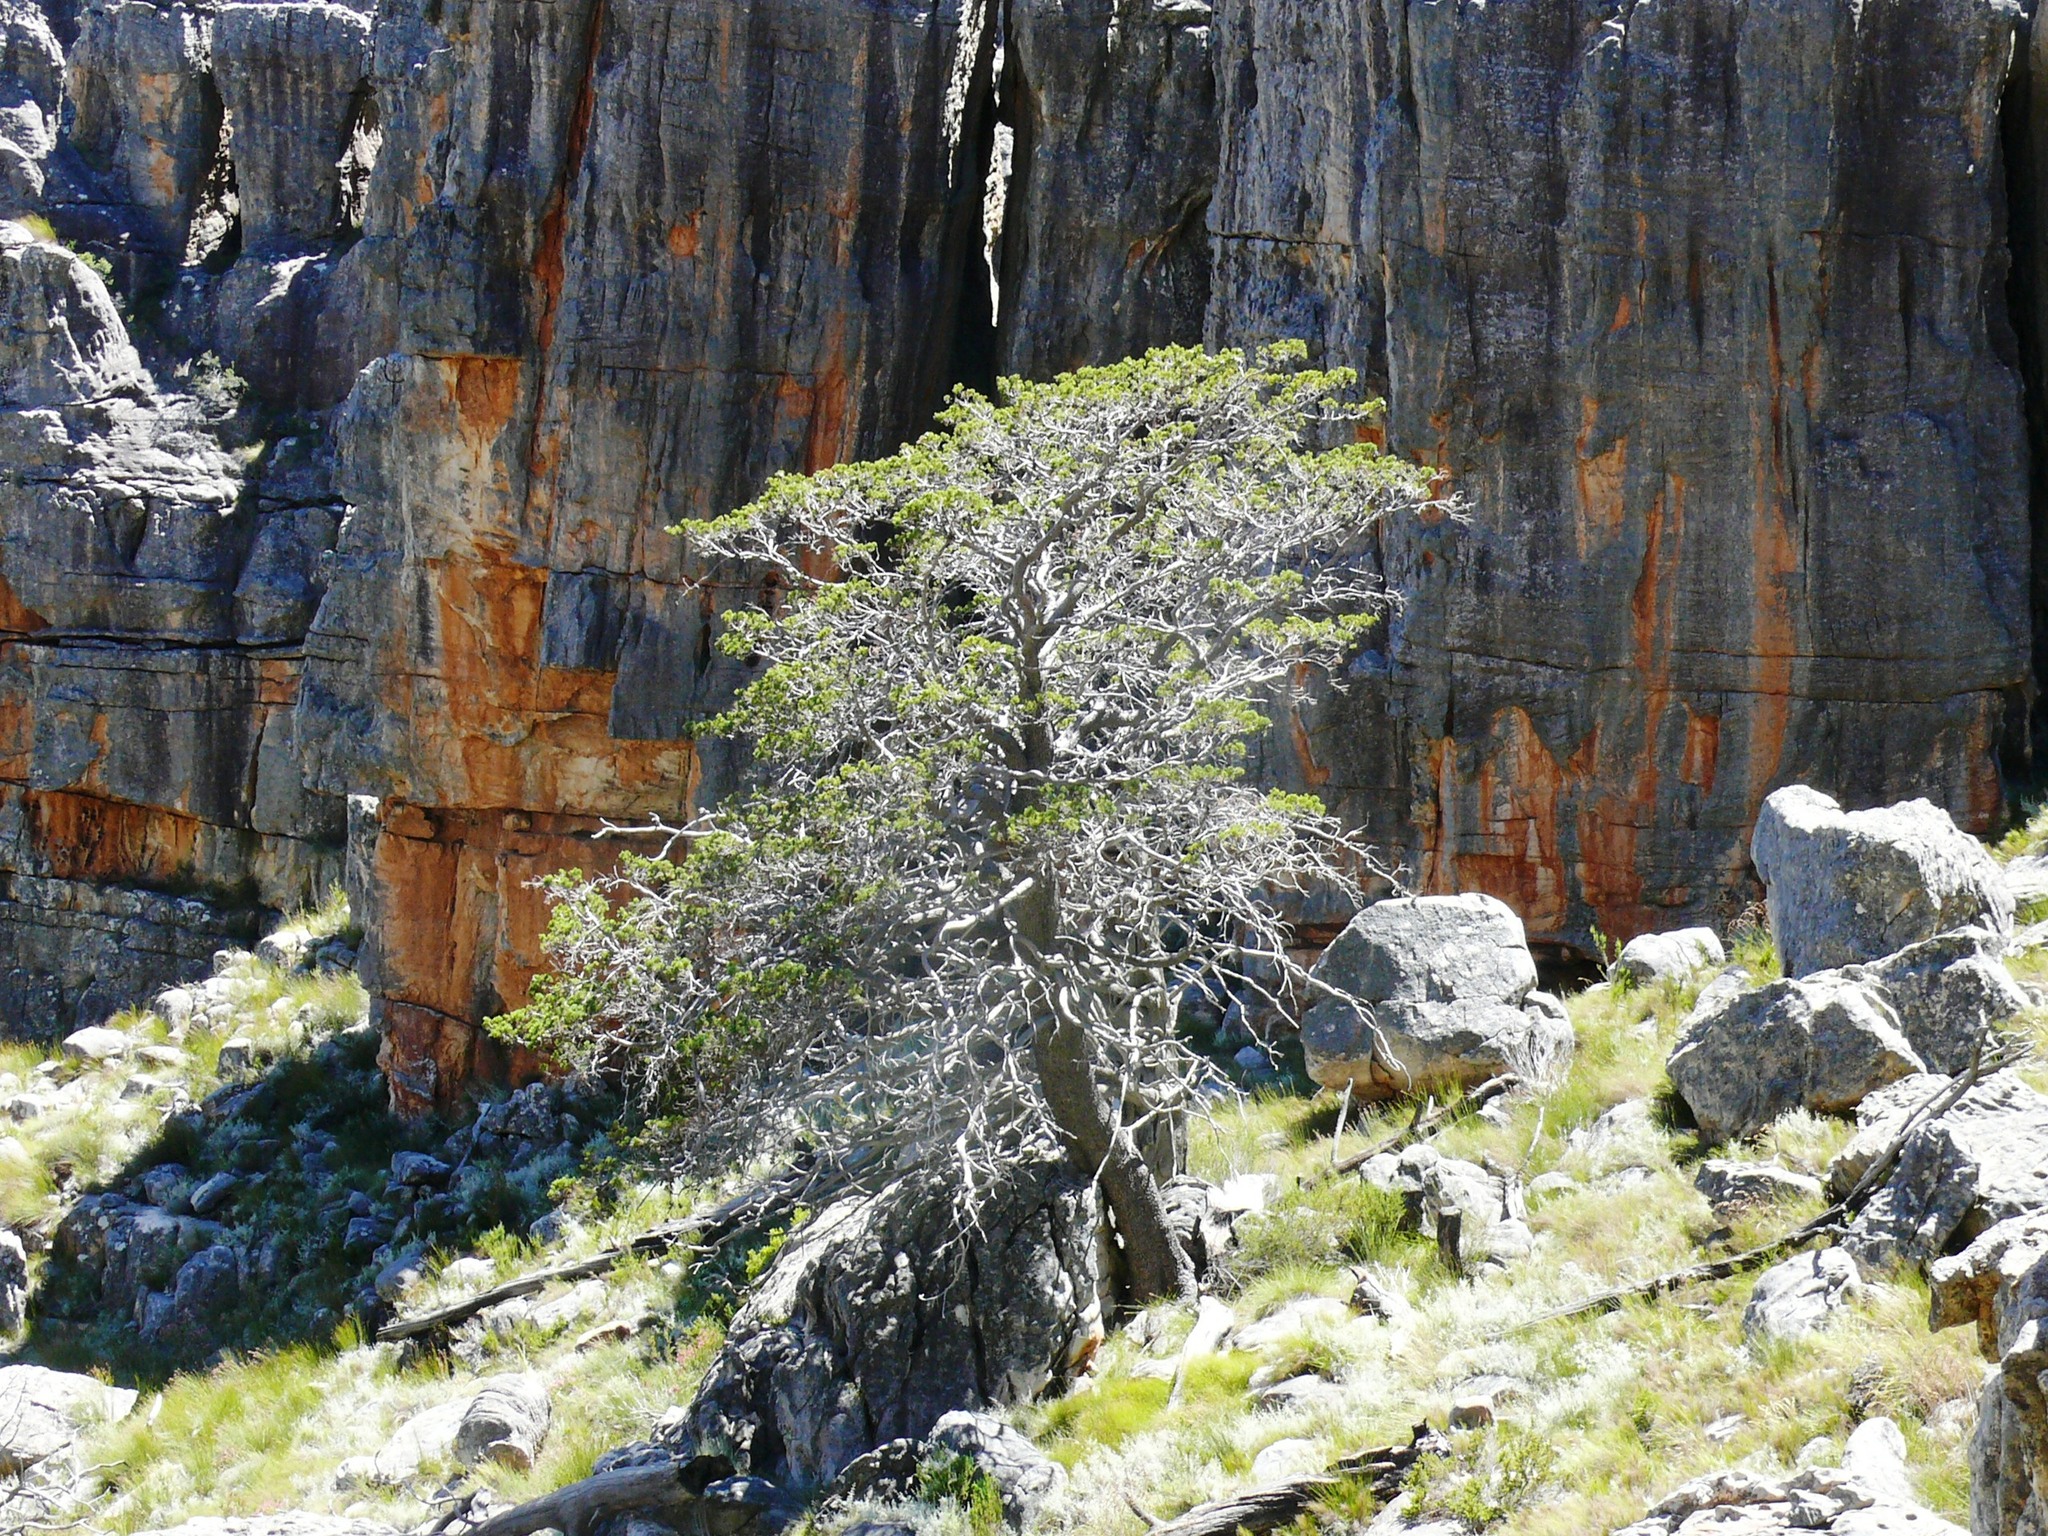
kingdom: Plantae
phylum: Tracheophyta
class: Pinopsida
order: Pinales
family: Cupressaceae
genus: Widdringtonia
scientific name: Widdringtonia nodiflora
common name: Cape cypress
